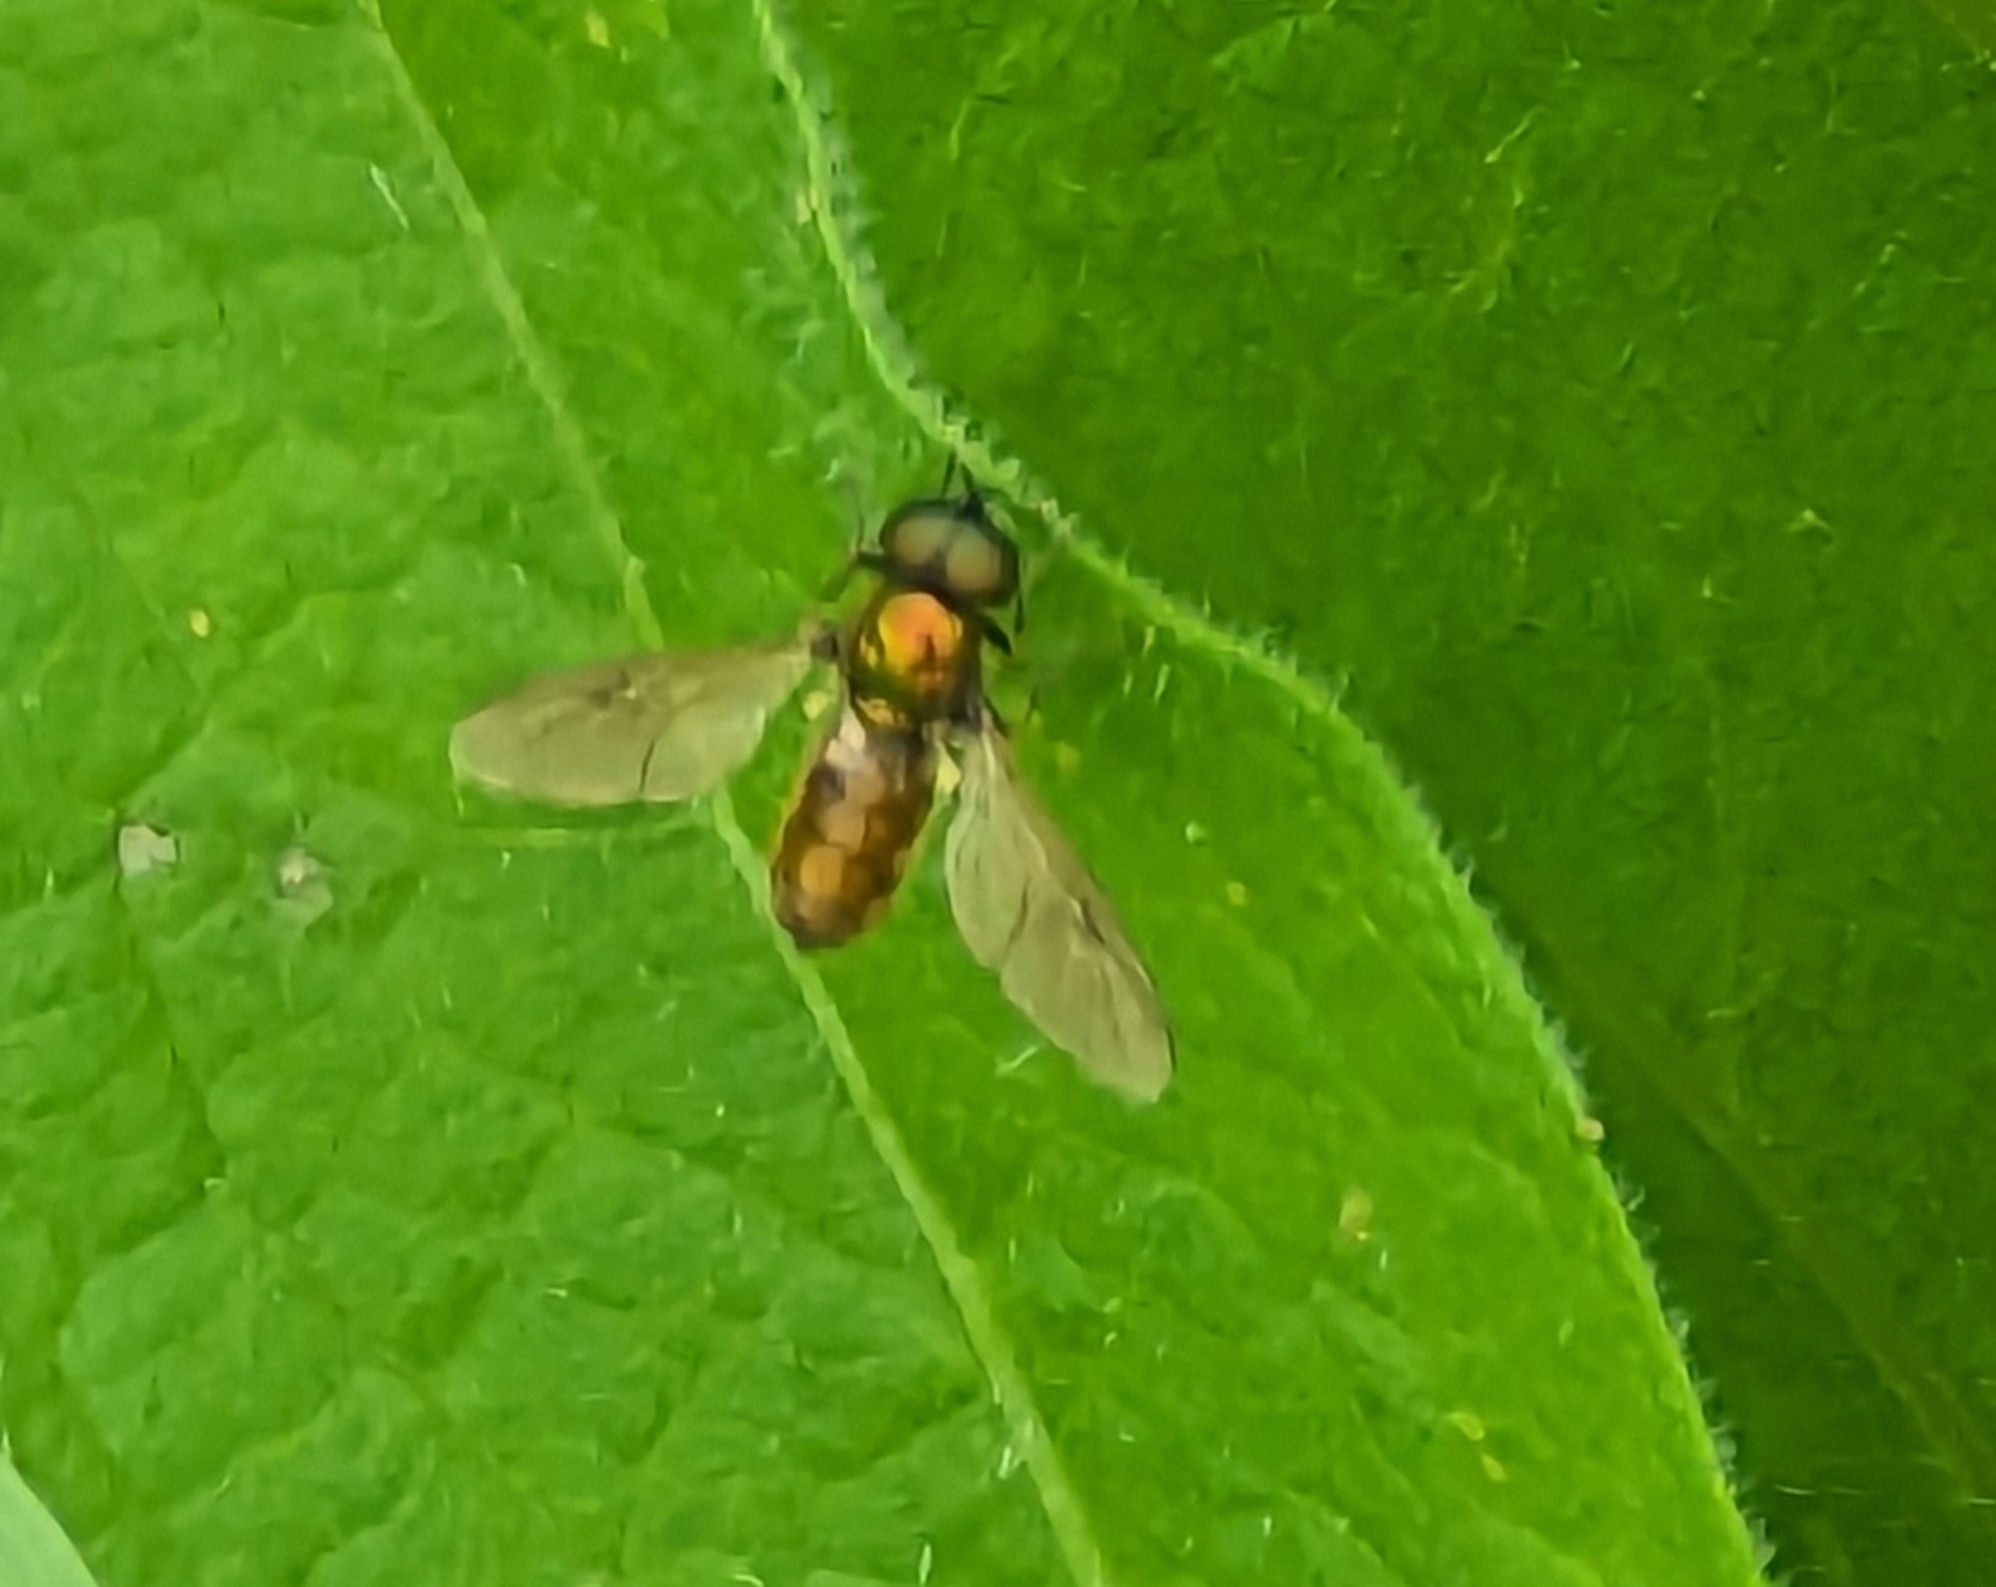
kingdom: Animalia
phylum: Arthropoda
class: Insecta
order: Diptera
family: Stratiomyidae
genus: Chloromyia
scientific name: Chloromyia formosa
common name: Soldier fly
